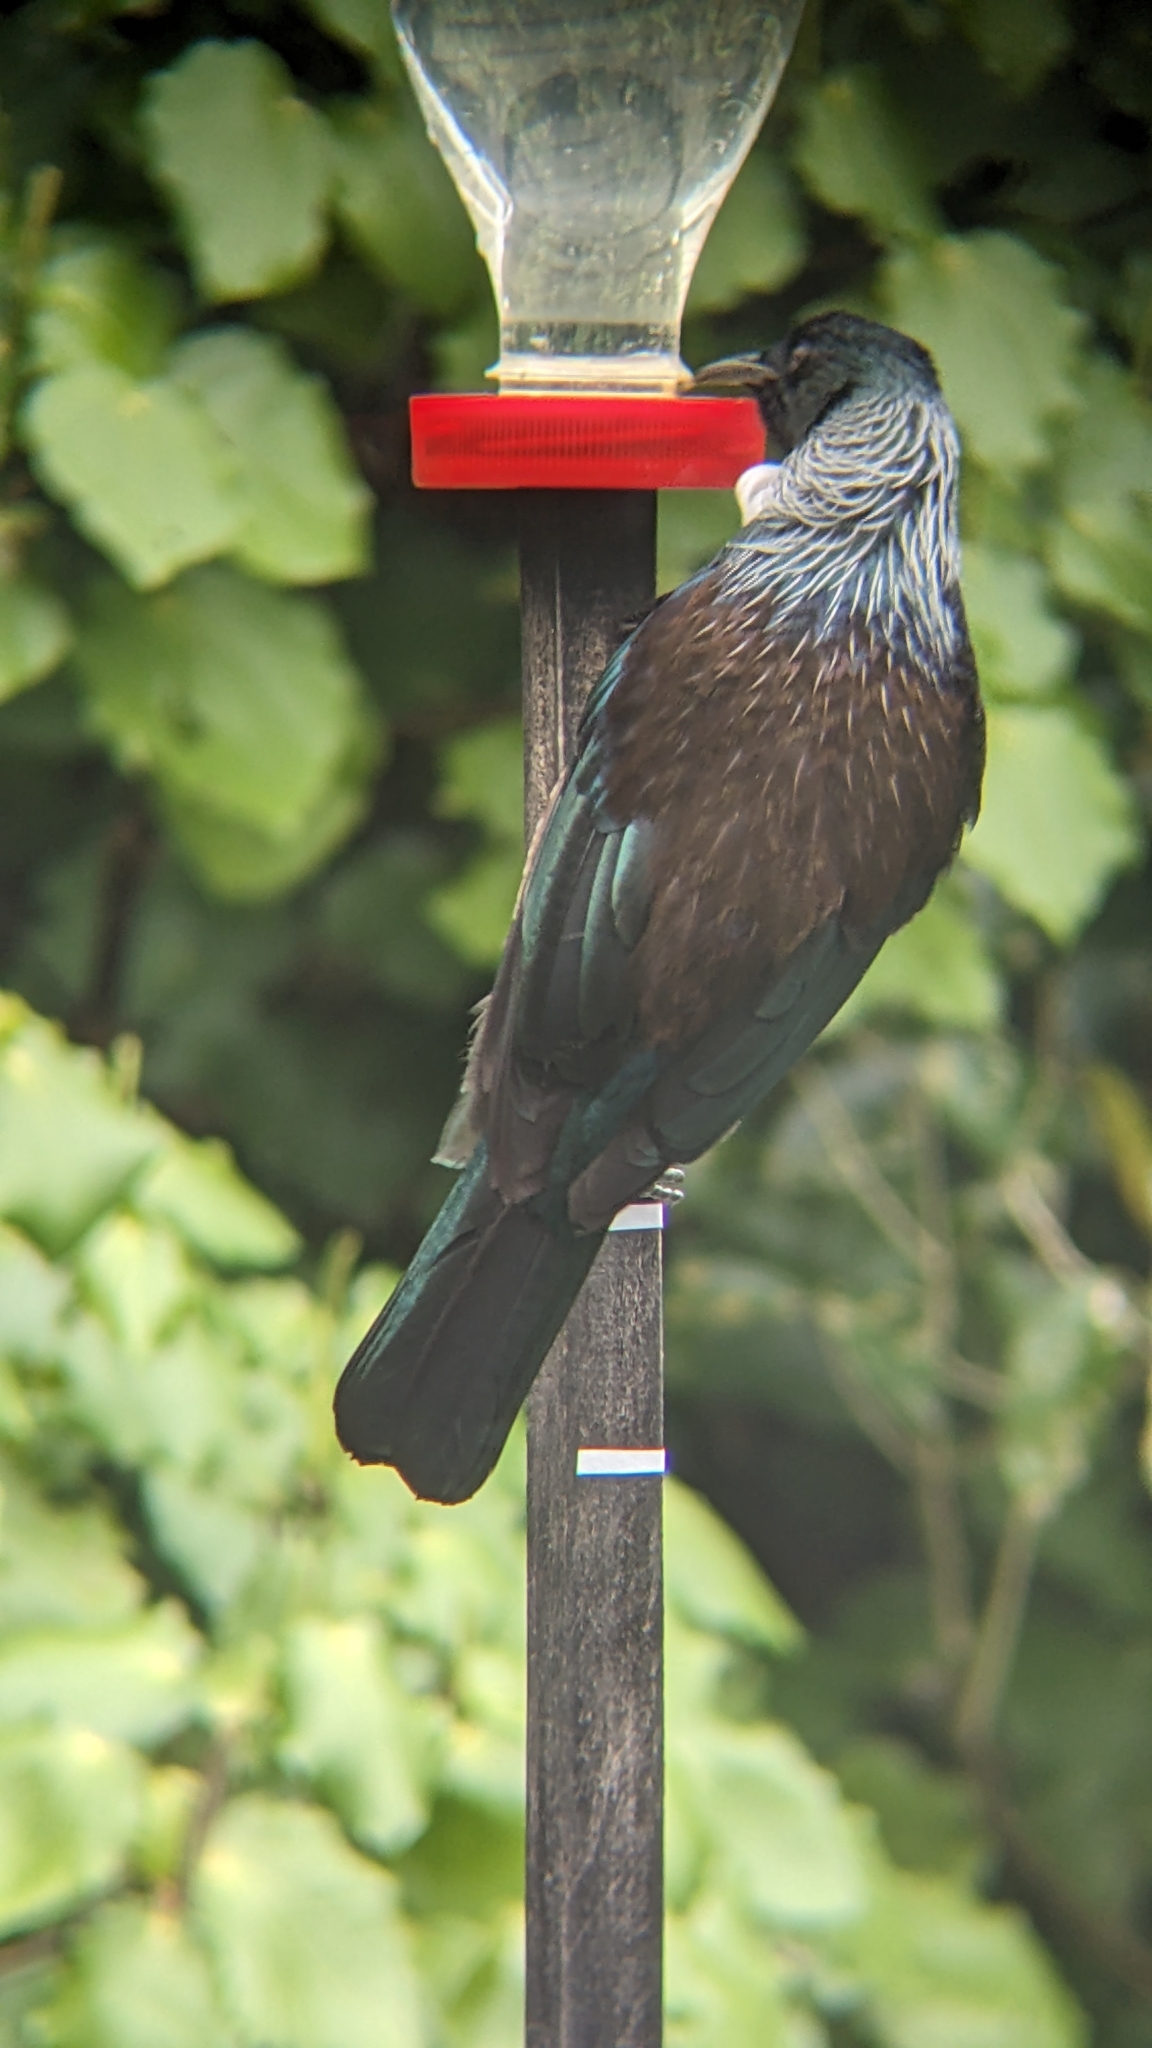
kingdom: Animalia
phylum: Chordata
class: Aves
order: Passeriformes
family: Meliphagidae
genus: Prosthemadera
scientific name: Prosthemadera novaeseelandiae
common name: Tui
